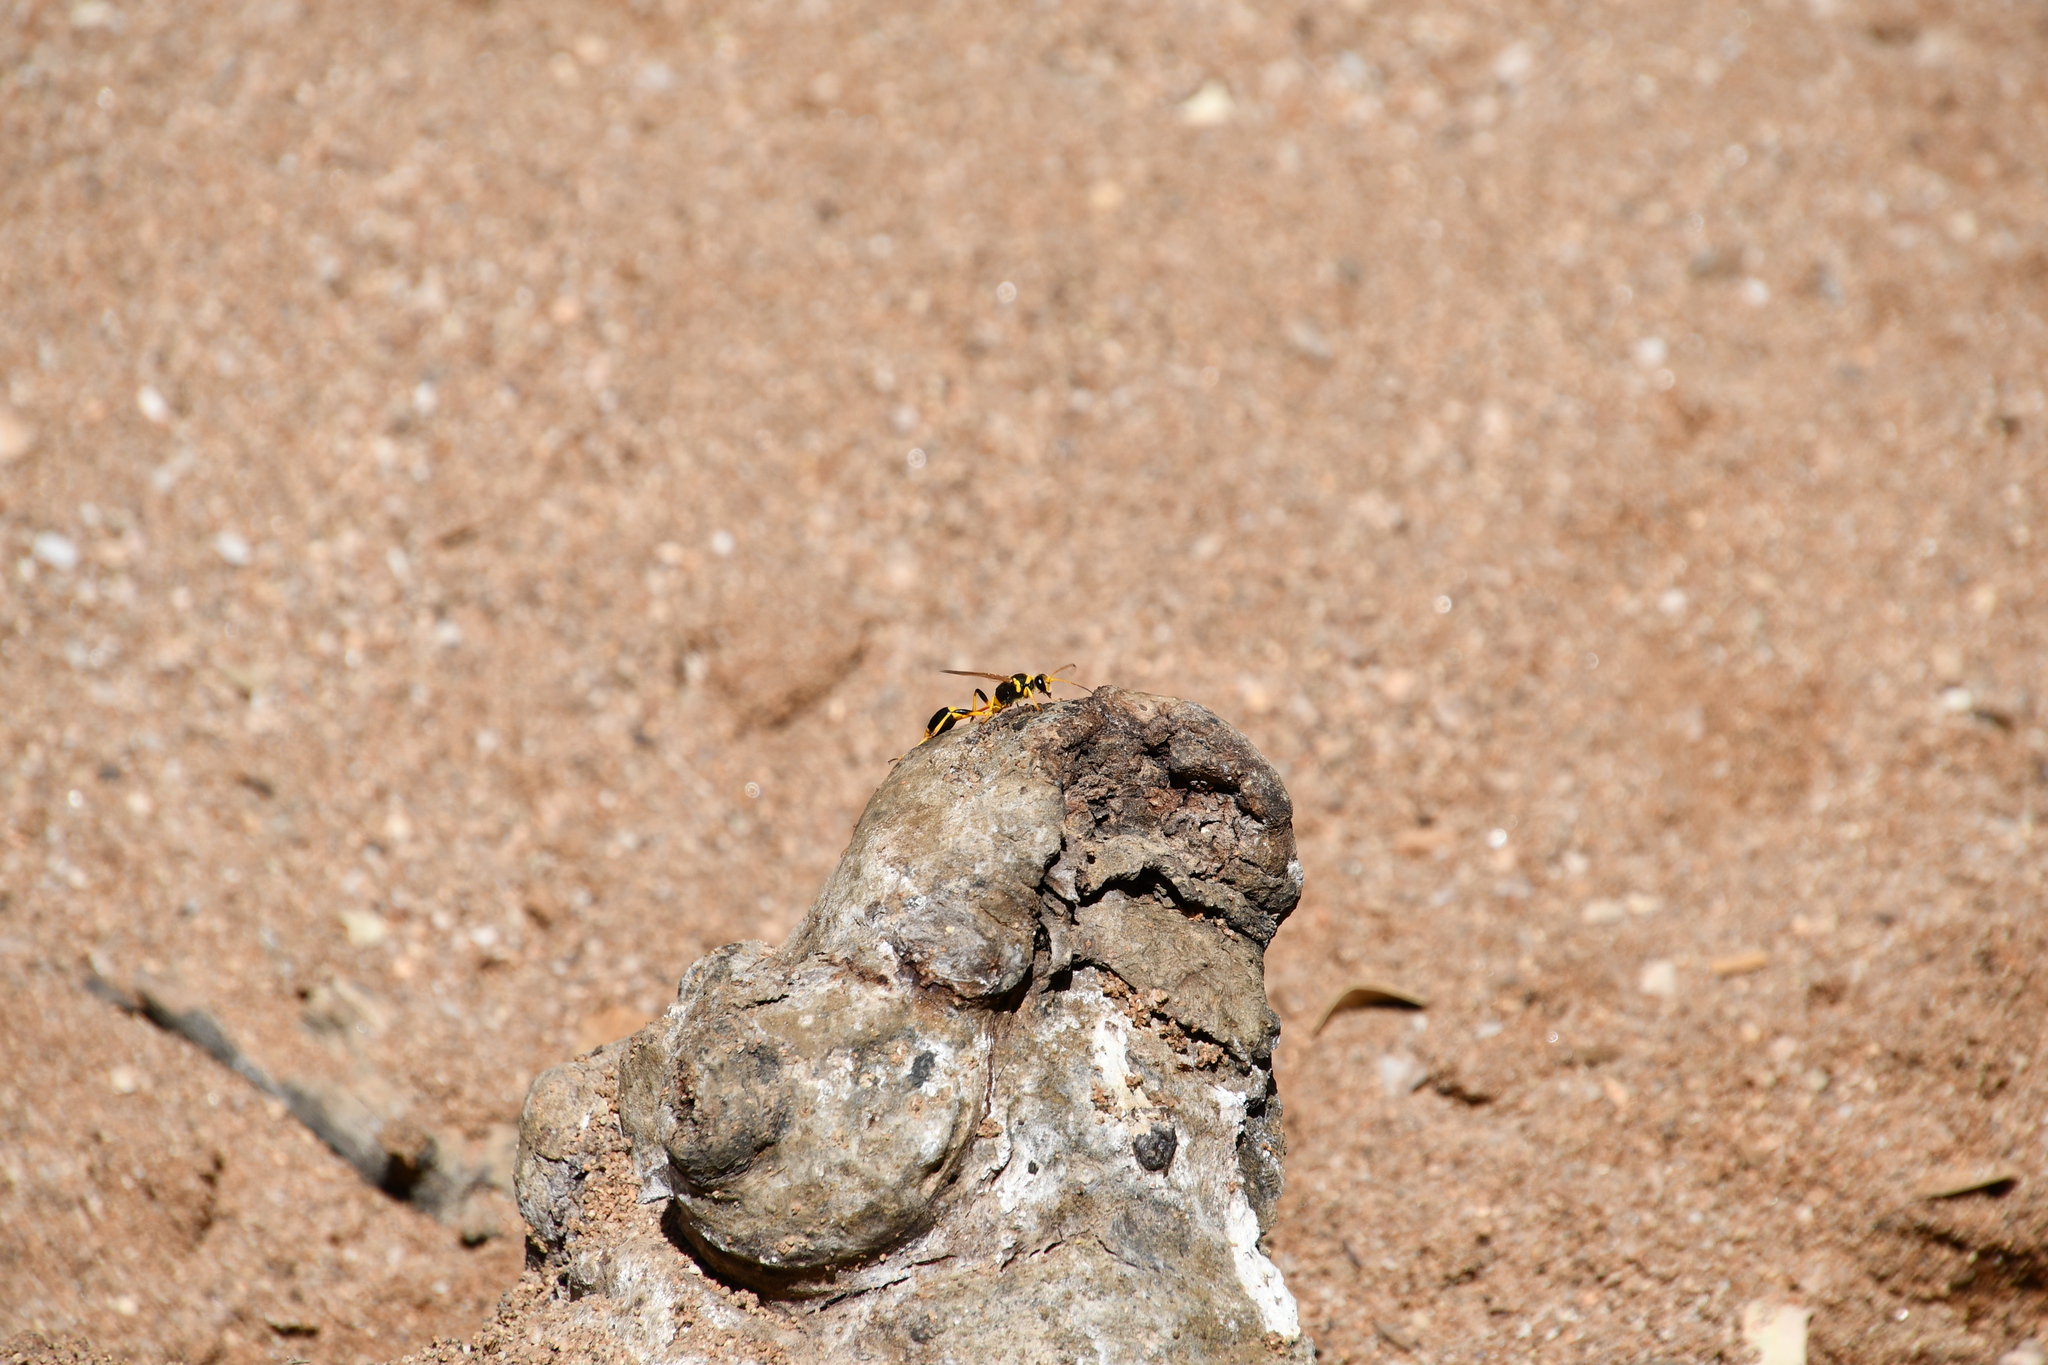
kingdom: Animalia
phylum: Arthropoda
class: Insecta
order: Hymenoptera
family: Sphecidae
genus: Sceliphron
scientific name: Sceliphron laetum
